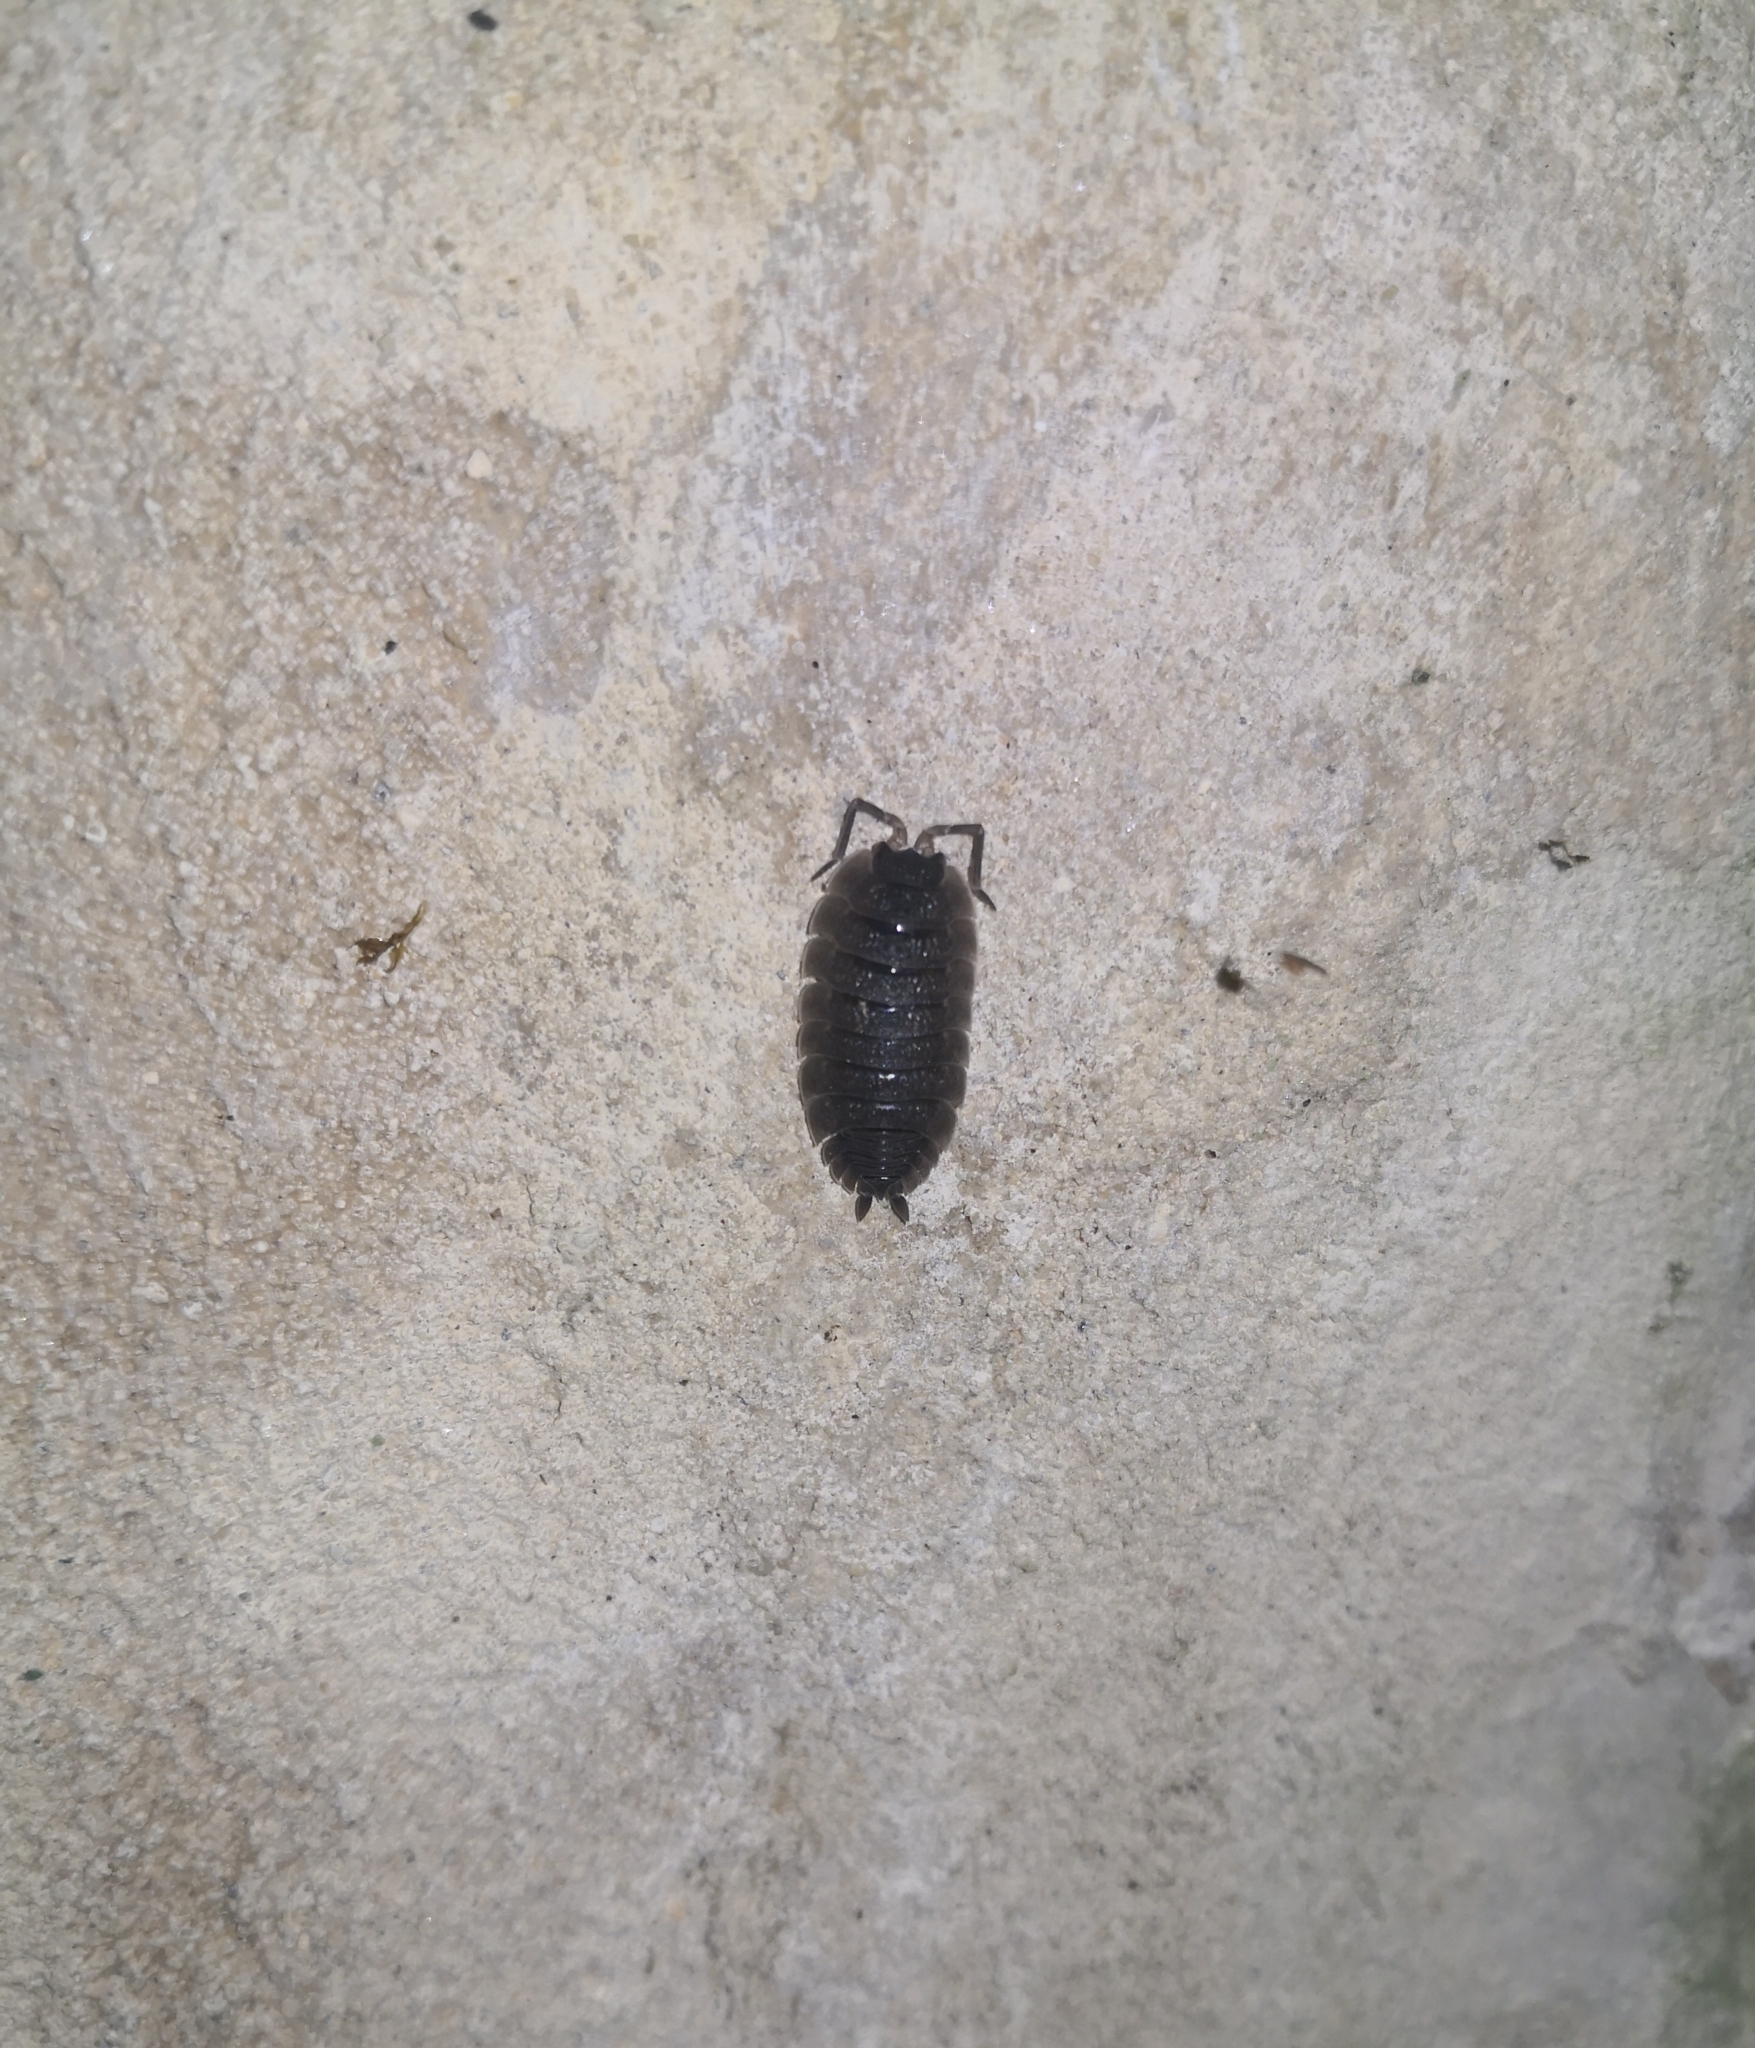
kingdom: Animalia
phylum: Arthropoda
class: Malacostraca
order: Isopoda
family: Porcellionidae
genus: Porcellio
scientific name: Porcellio scaber
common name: Common rough woodlouse
